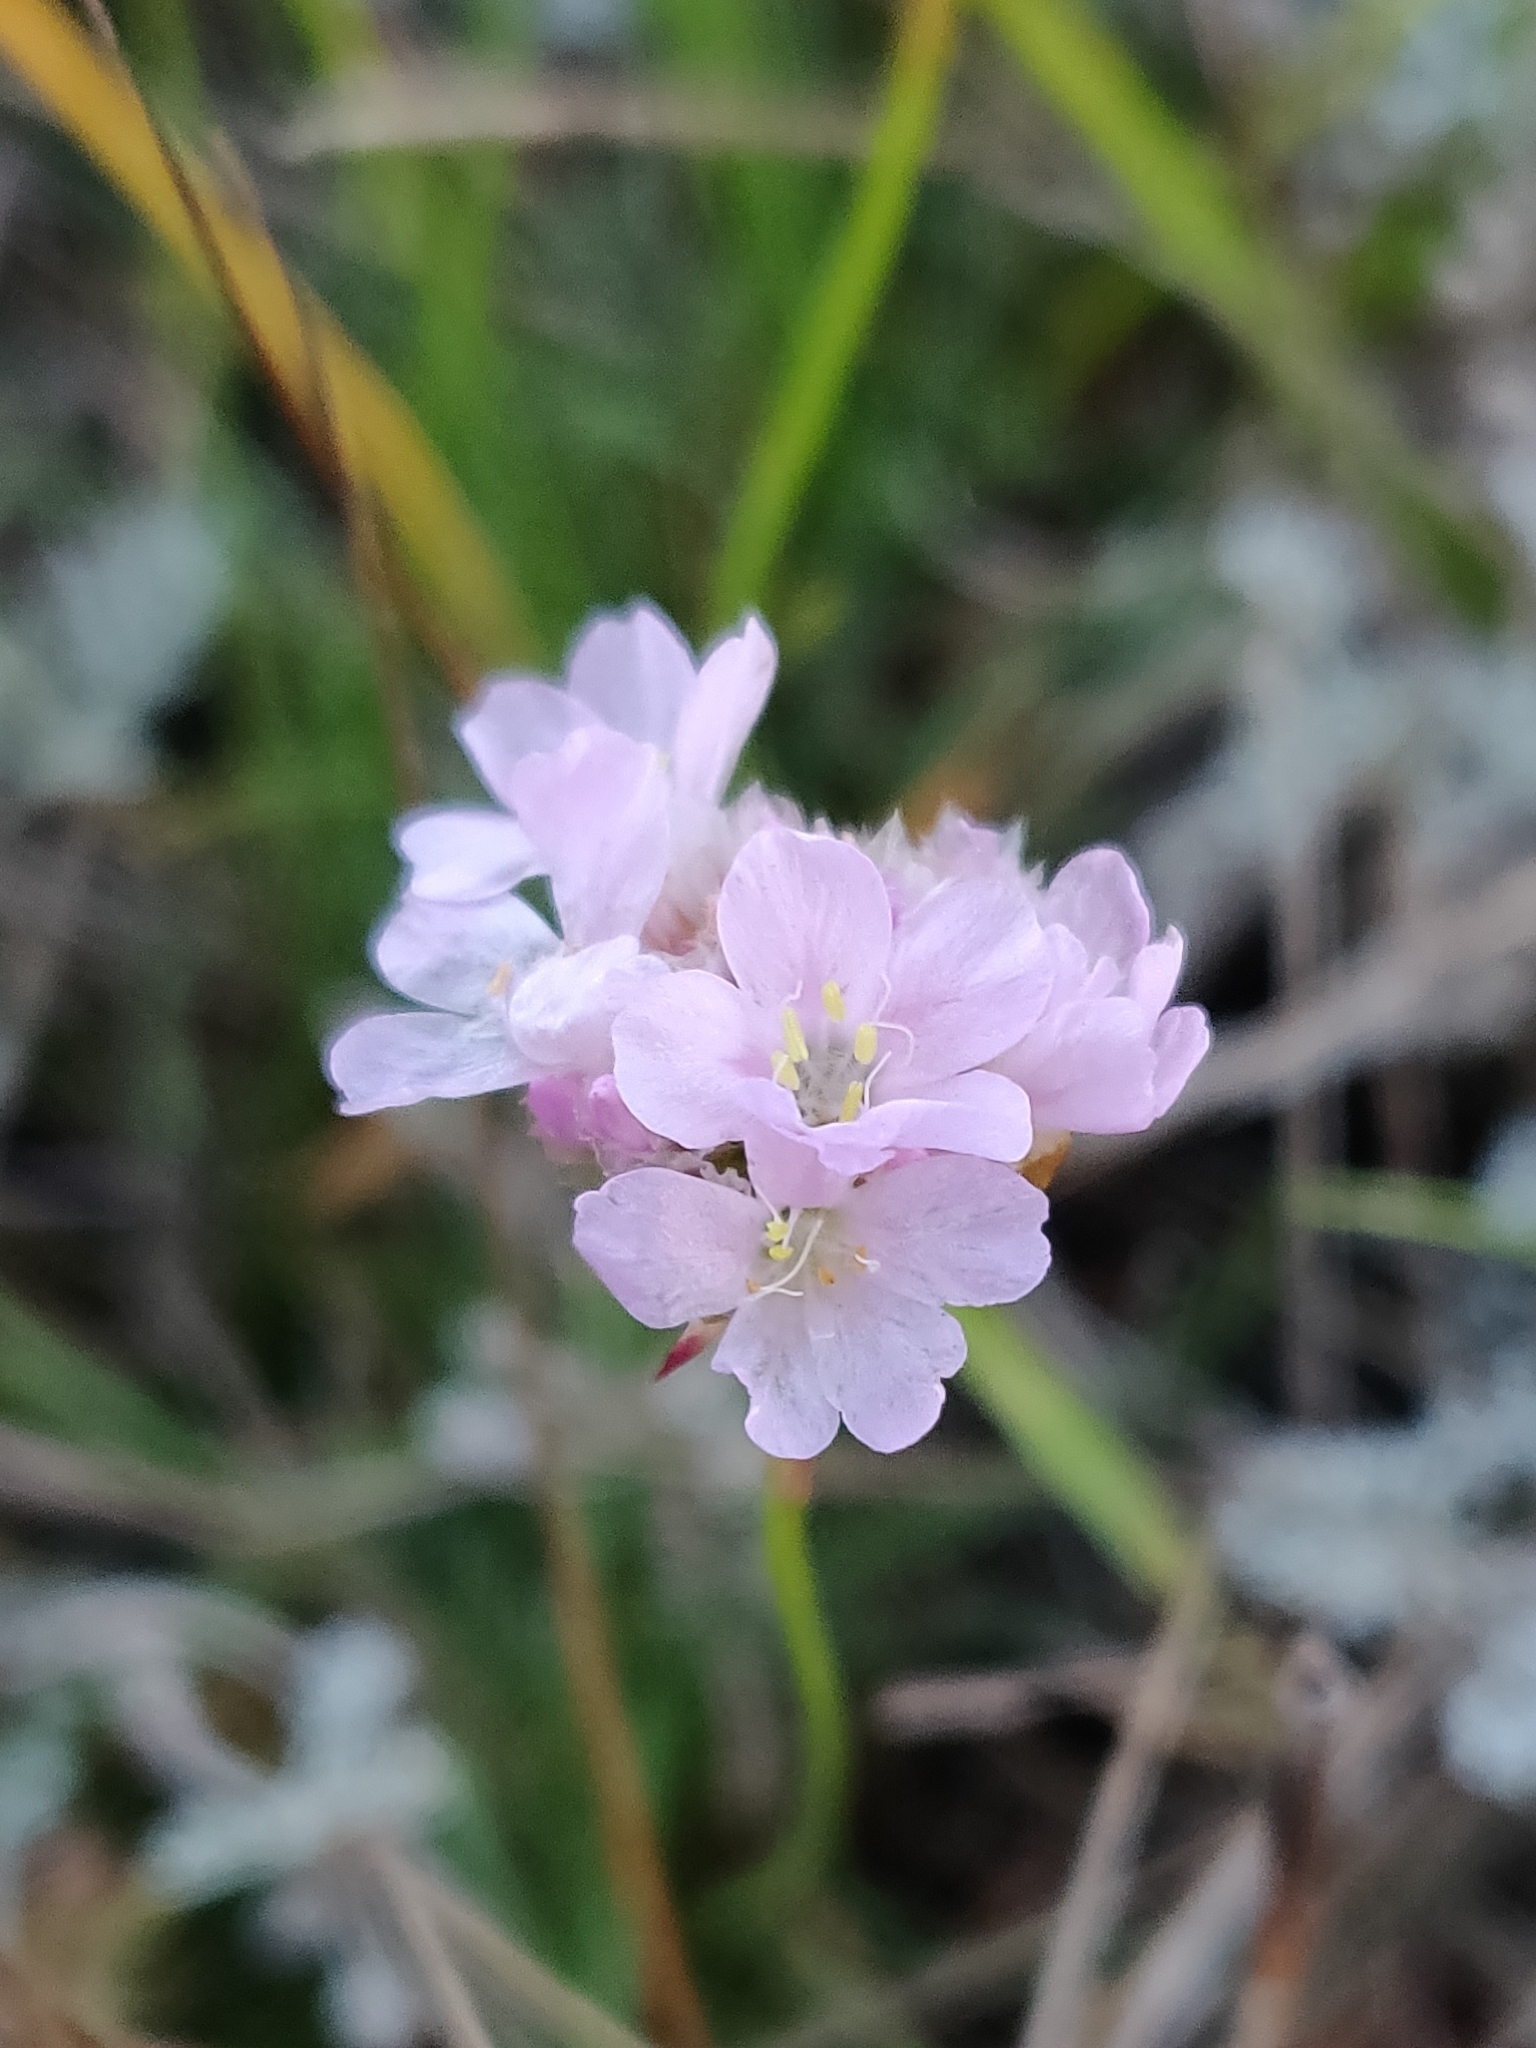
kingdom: Plantae
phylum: Tracheophyta
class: Magnoliopsida
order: Caryophyllales
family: Plumbaginaceae
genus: Armeria
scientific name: Armeria maritima
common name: Thrift
